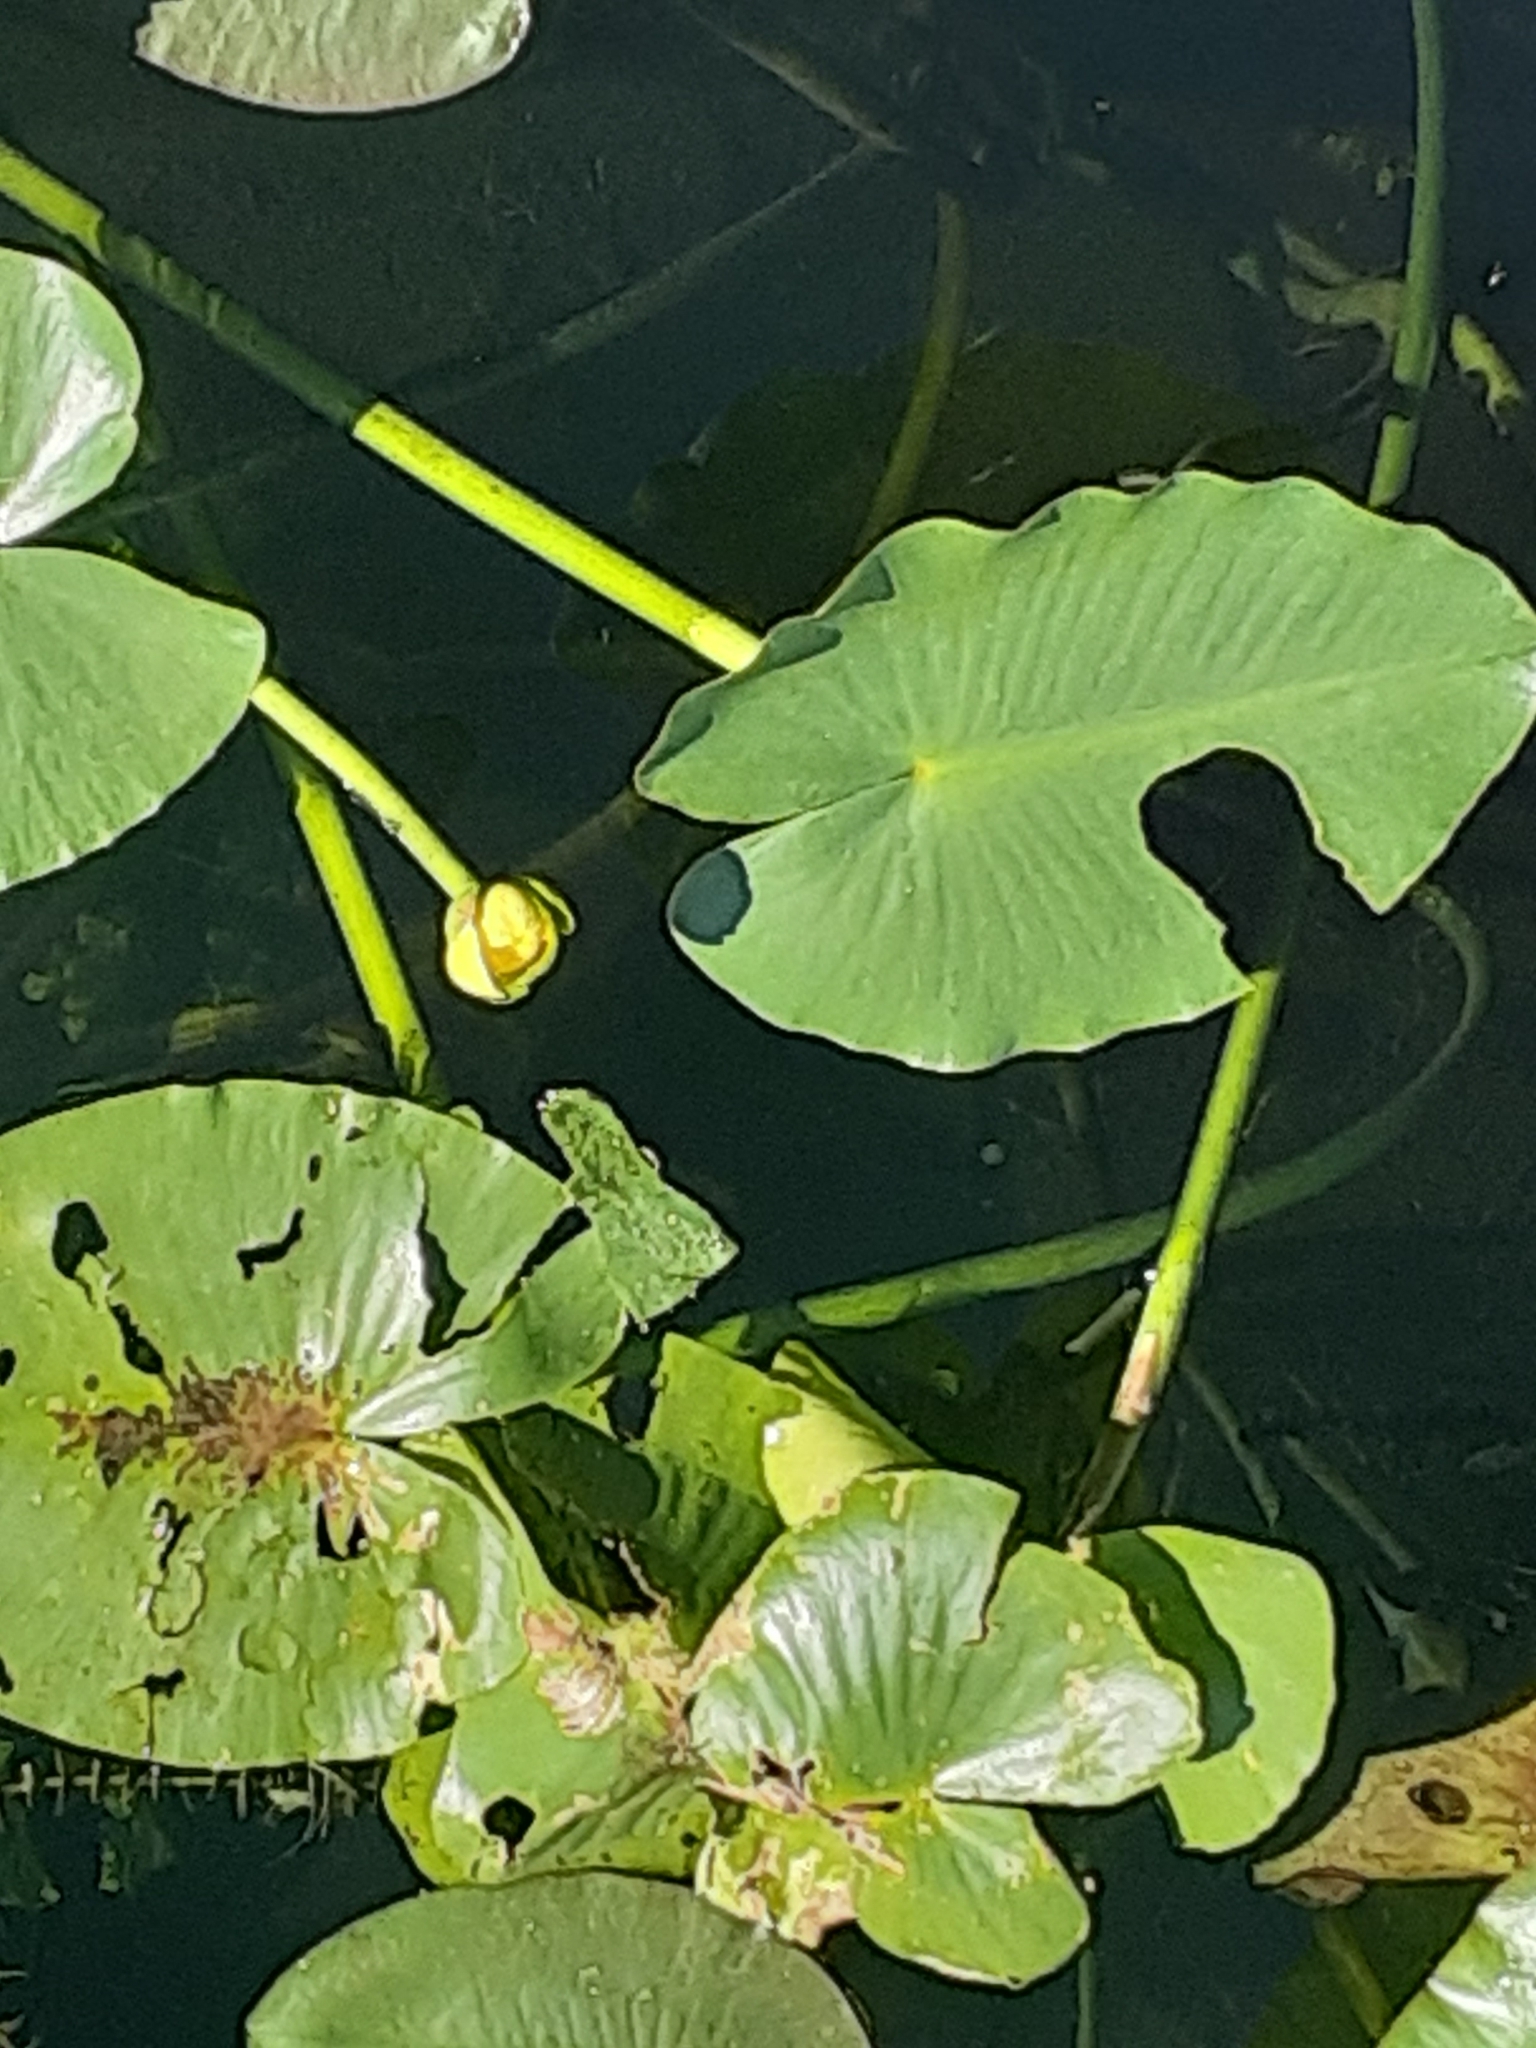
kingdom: Plantae
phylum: Tracheophyta
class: Magnoliopsida
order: Nymphaeales
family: Nymphaeaceae
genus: Nuphar
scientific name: Nuphar advena
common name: Spatter-dock
